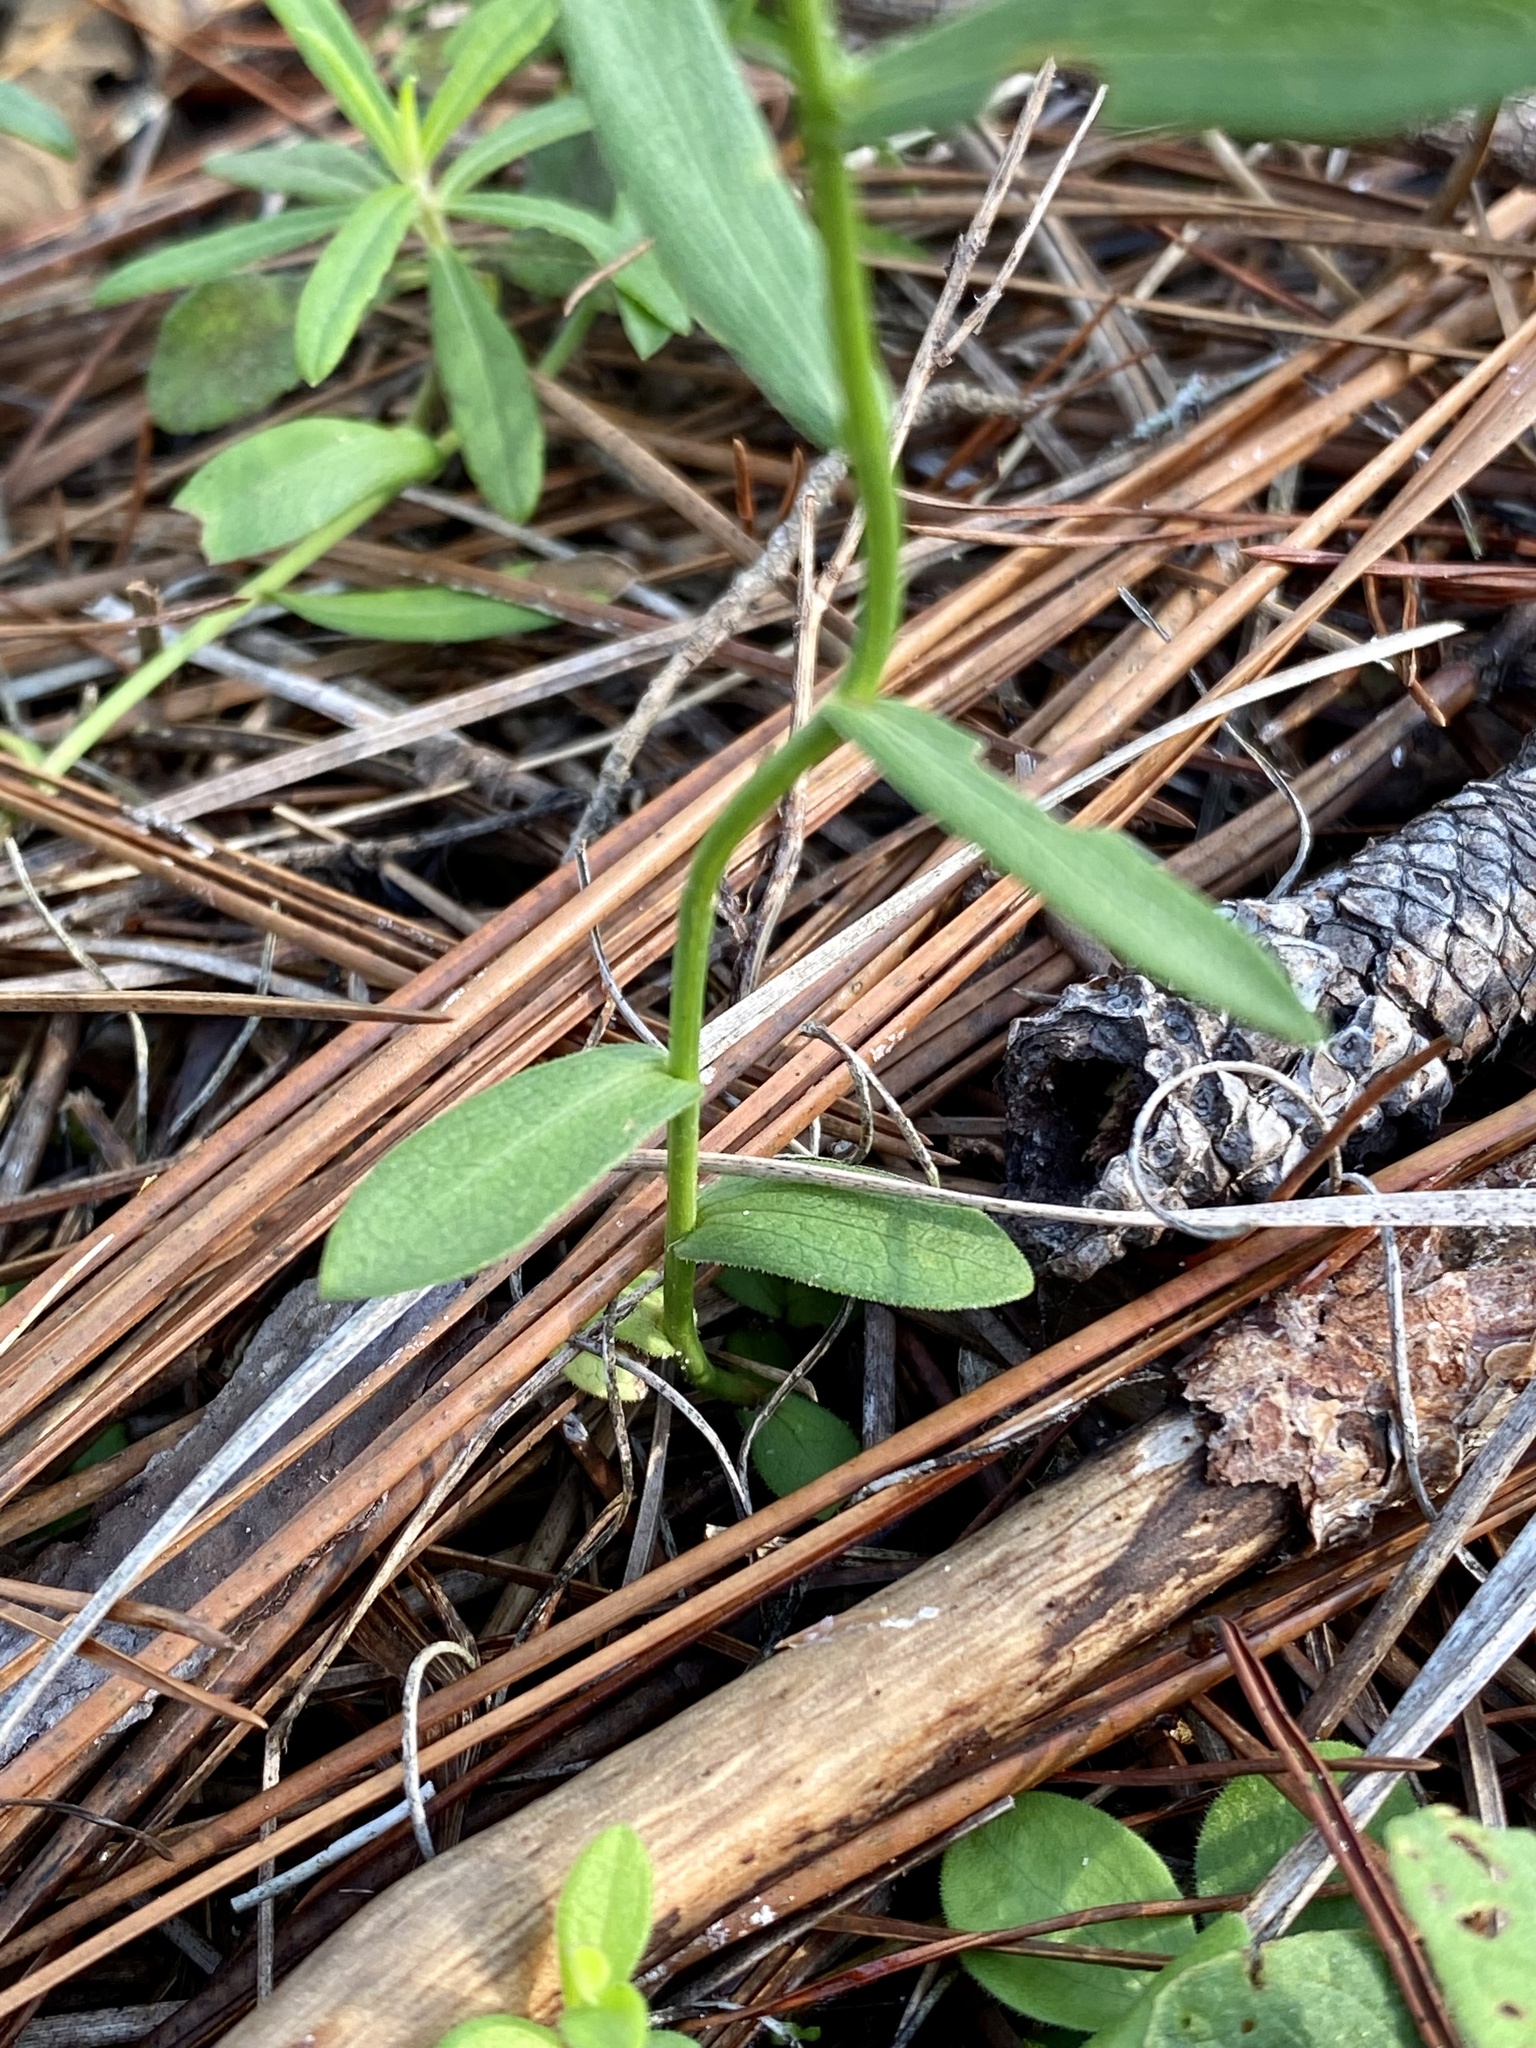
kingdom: Plantae
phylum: Tracheophyta
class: Magnoliopsida
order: Asterales
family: Asteraceae
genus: Symphyotrichum
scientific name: Symphyotrichum dumosum
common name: Bushy aster
